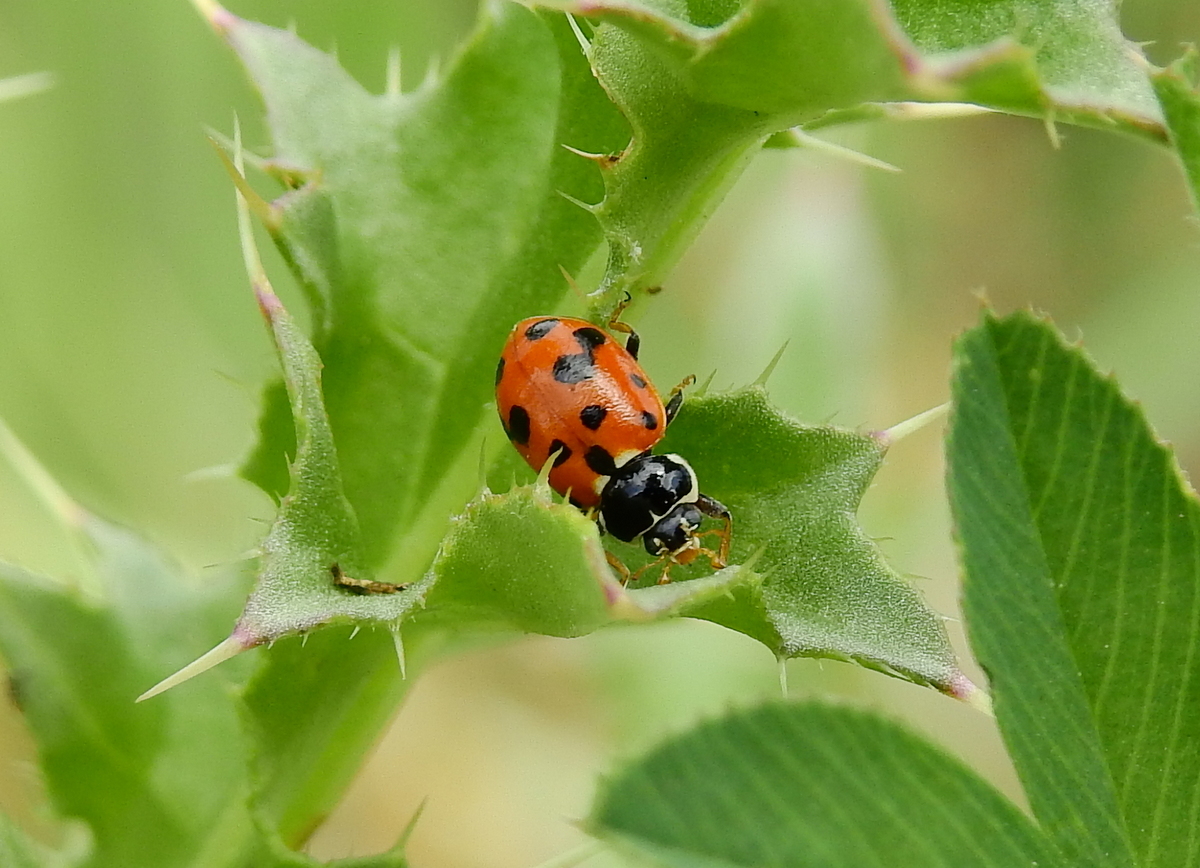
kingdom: Animalia
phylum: Arthropoda
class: Insecta
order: Coleoptera
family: Coccinellidae
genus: Hippodamia
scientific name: Hippodamia variegata
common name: Ladybird beetle
